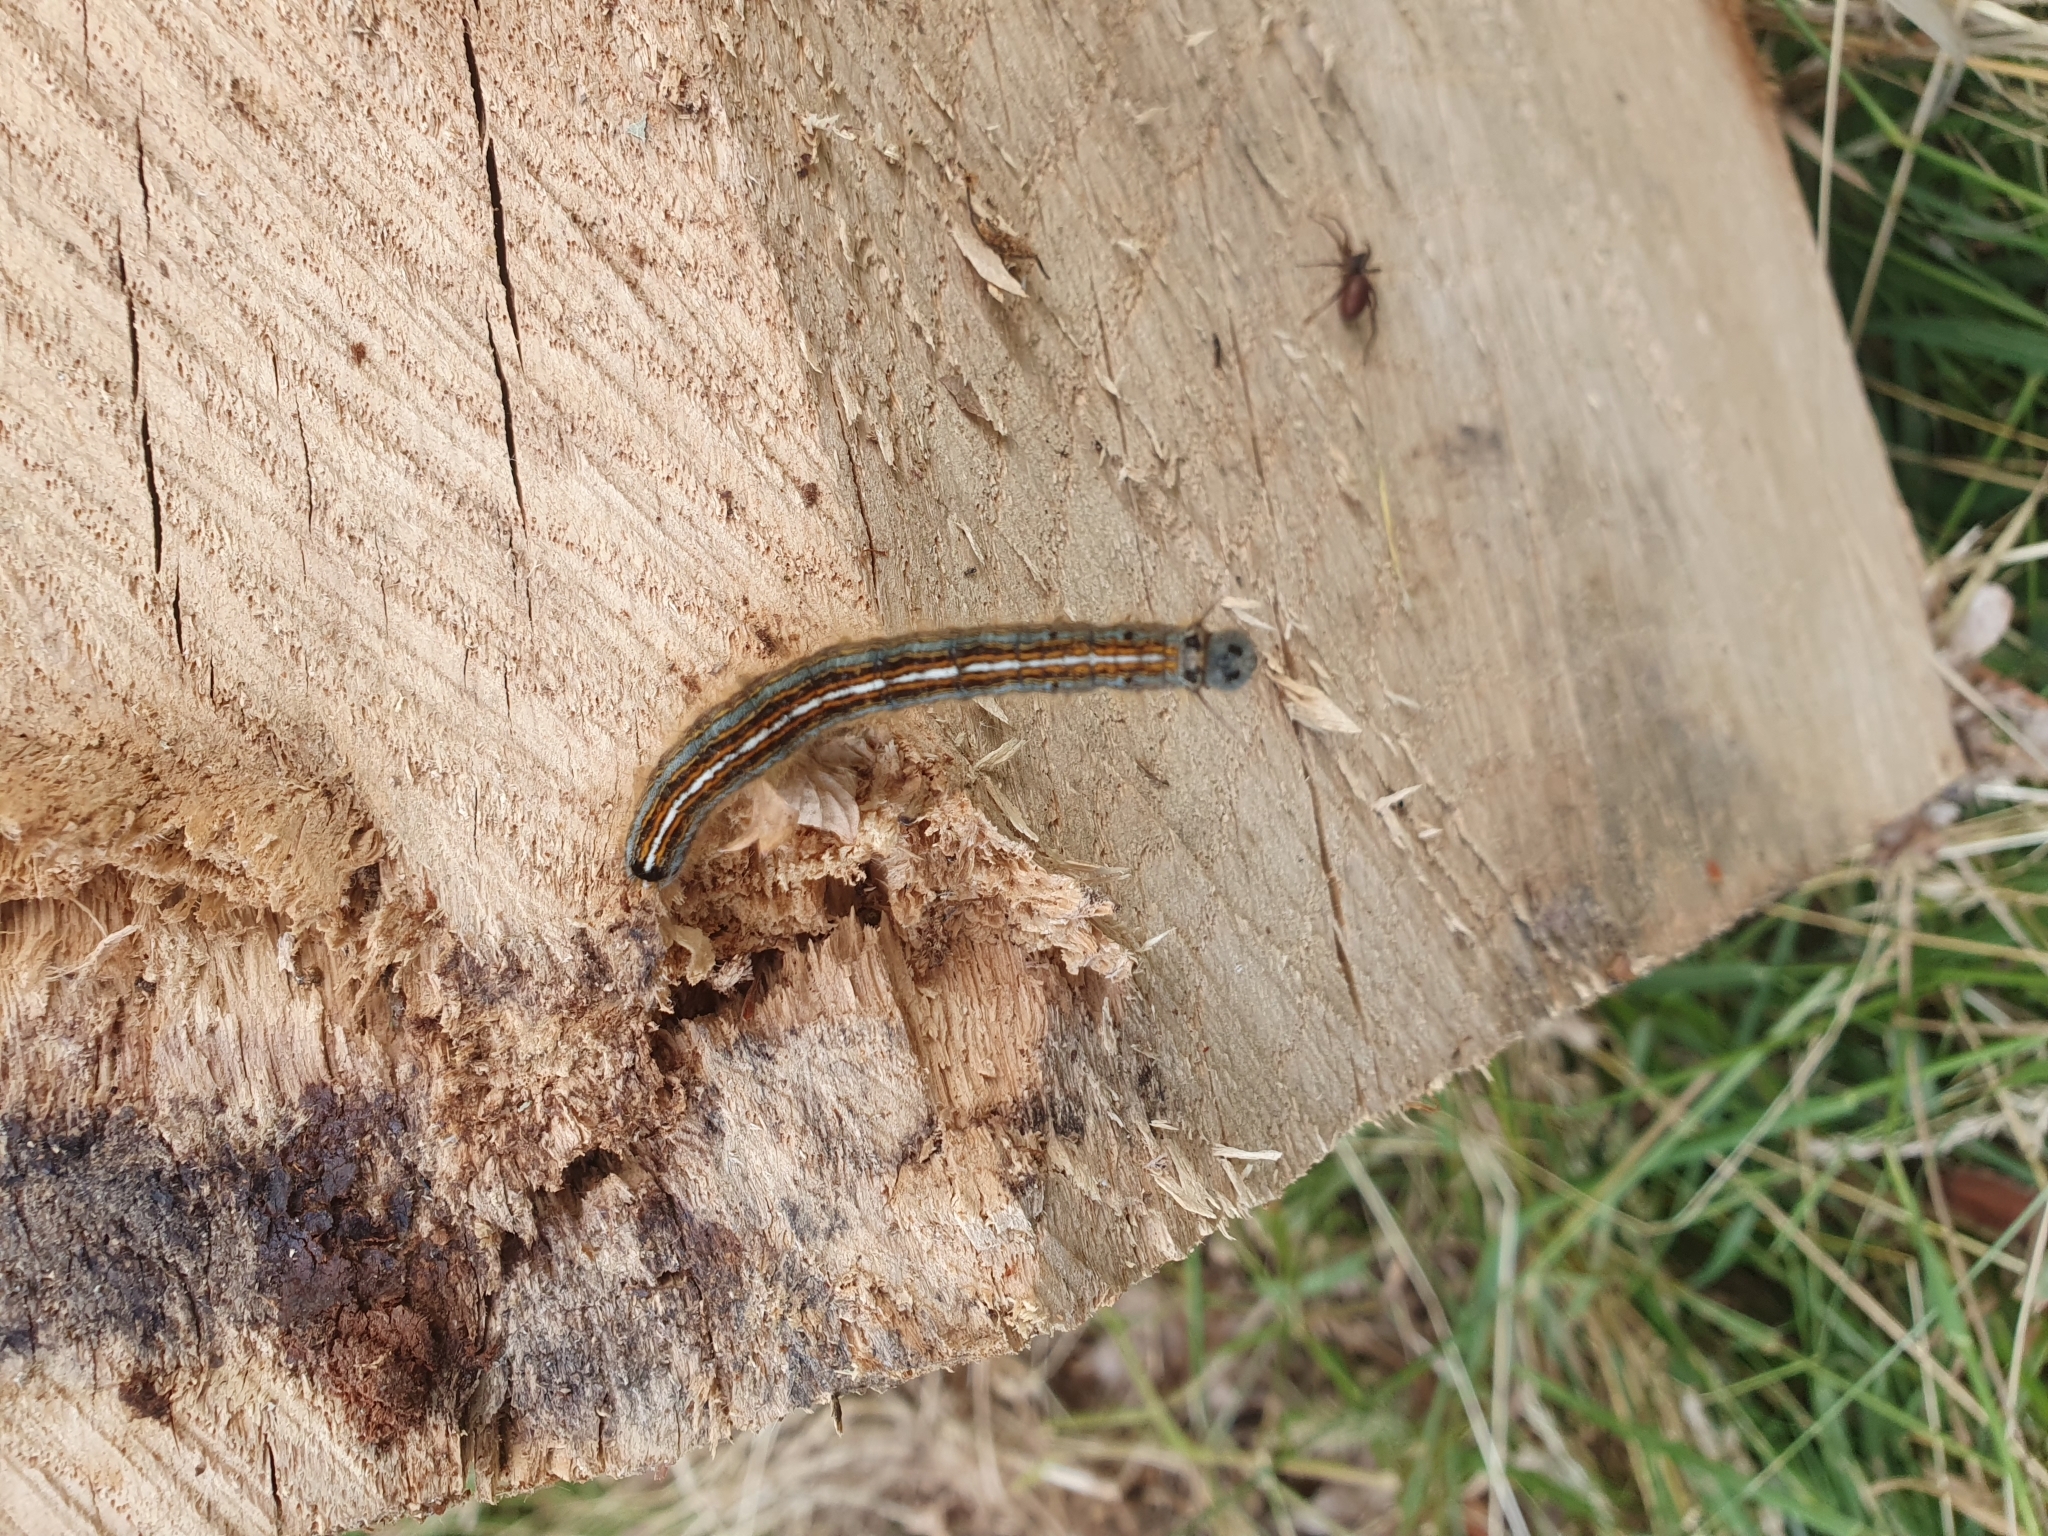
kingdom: Animalia
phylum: Arthropoda
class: Insecta
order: Lepidoptera
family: Lasiocampidae
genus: Malacosoma
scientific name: Malacosoma neustria
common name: The lackey
